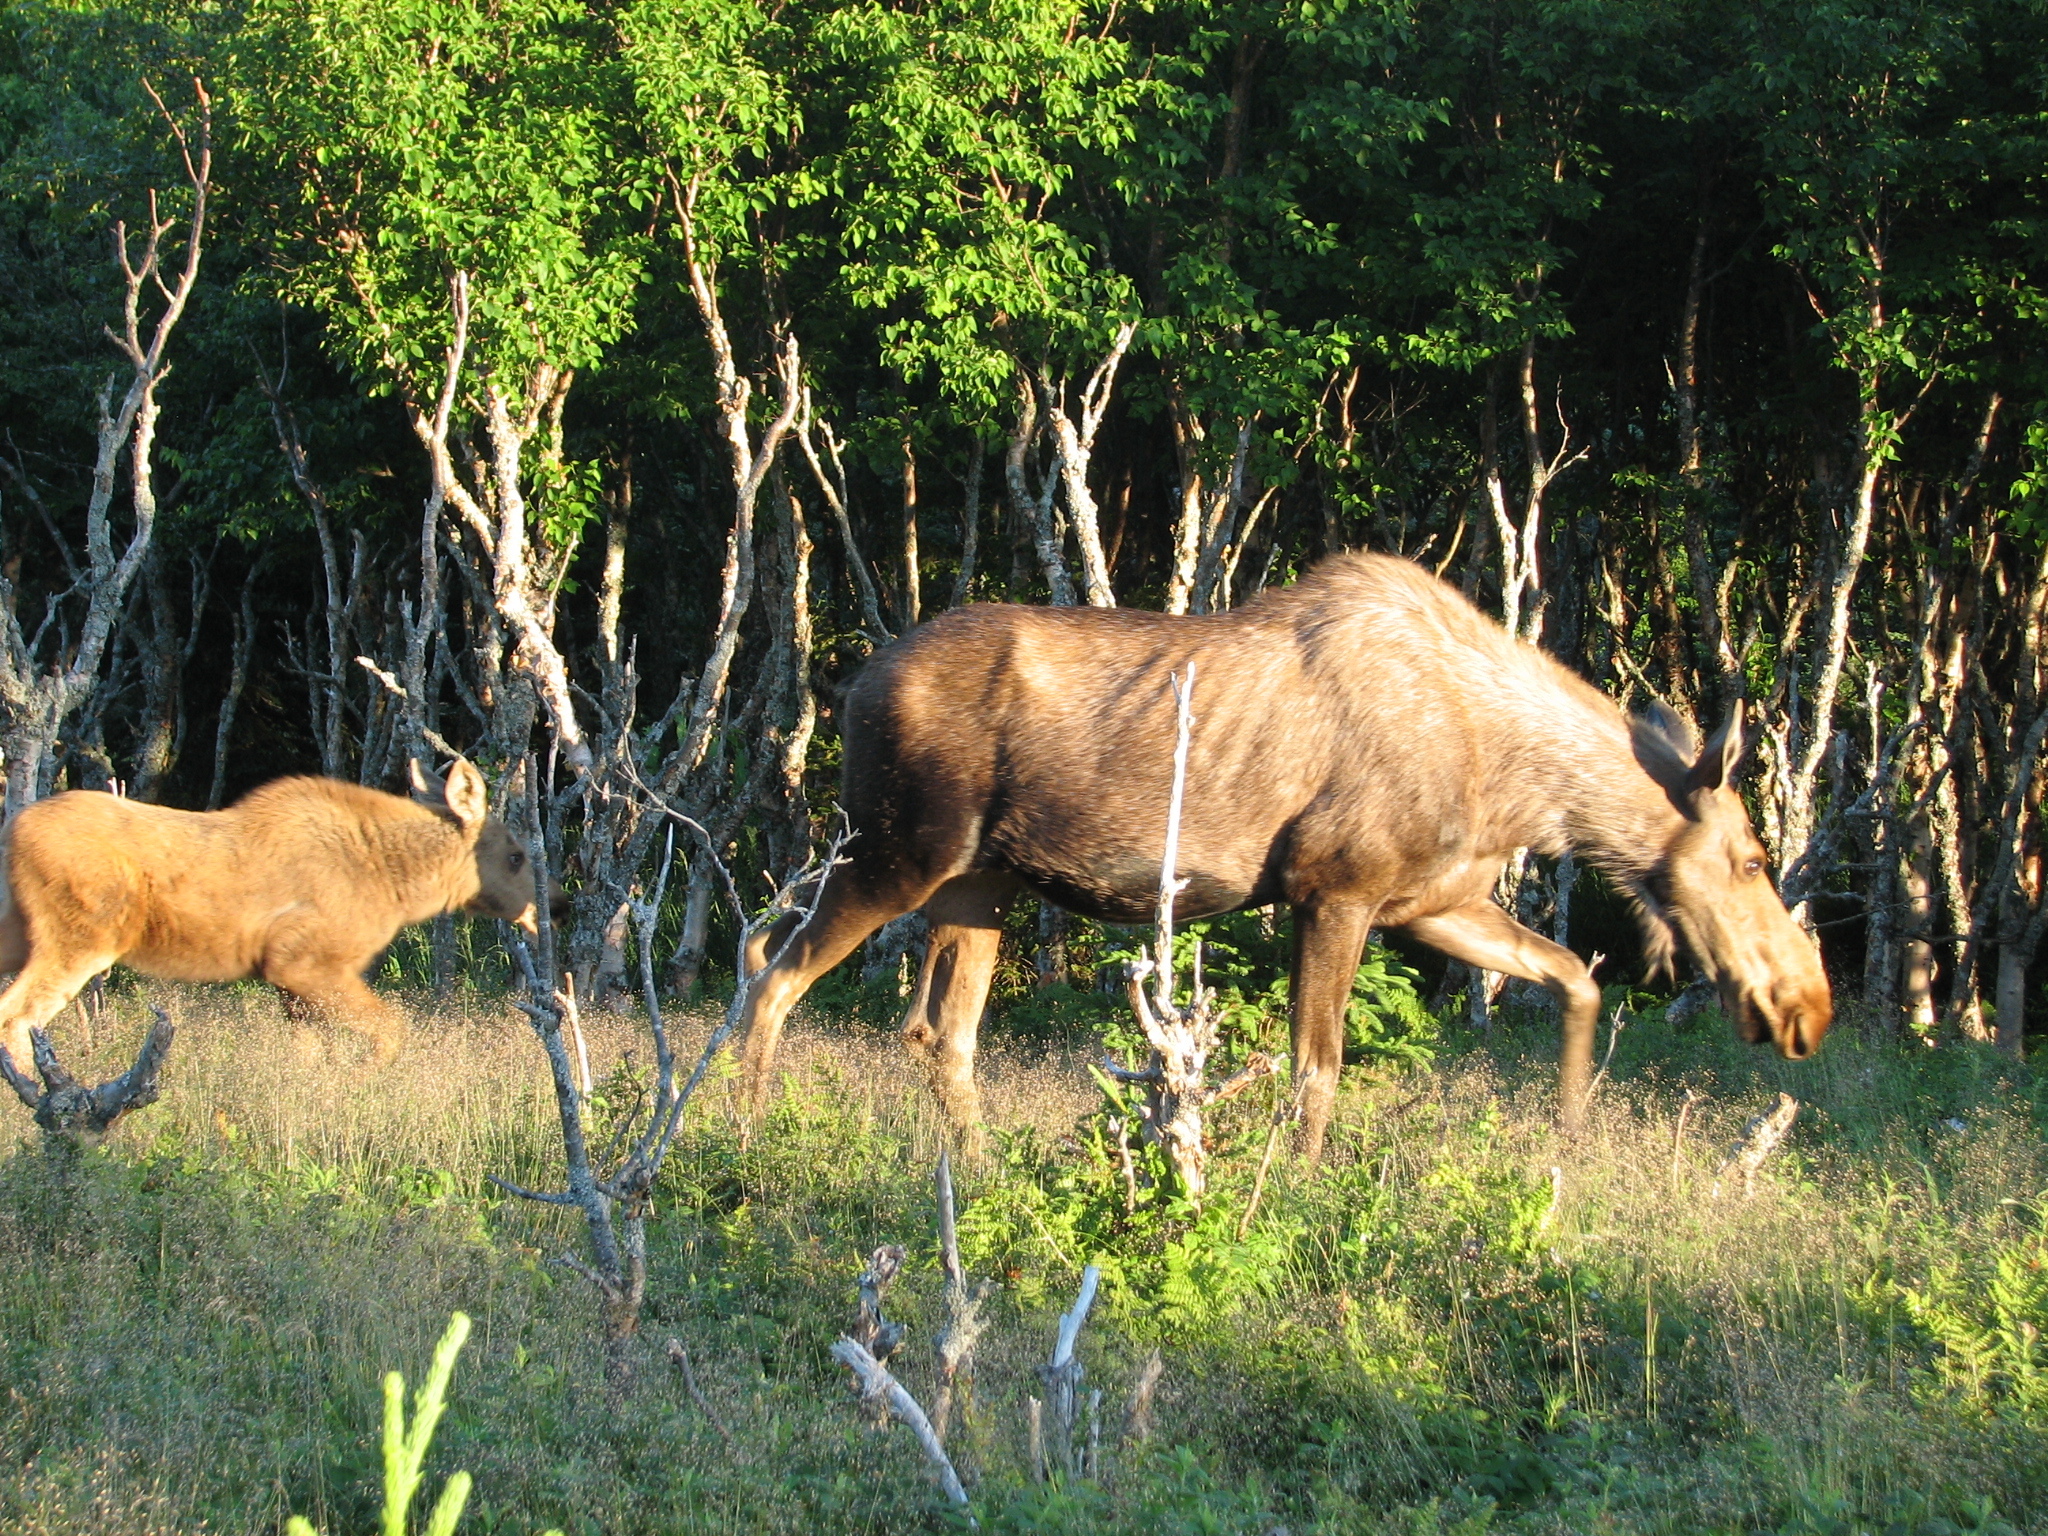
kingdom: Animalia
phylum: Chordata
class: Mammalia
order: Artiodactyla
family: Cervidae
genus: Alces
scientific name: Alces alces
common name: Moose
